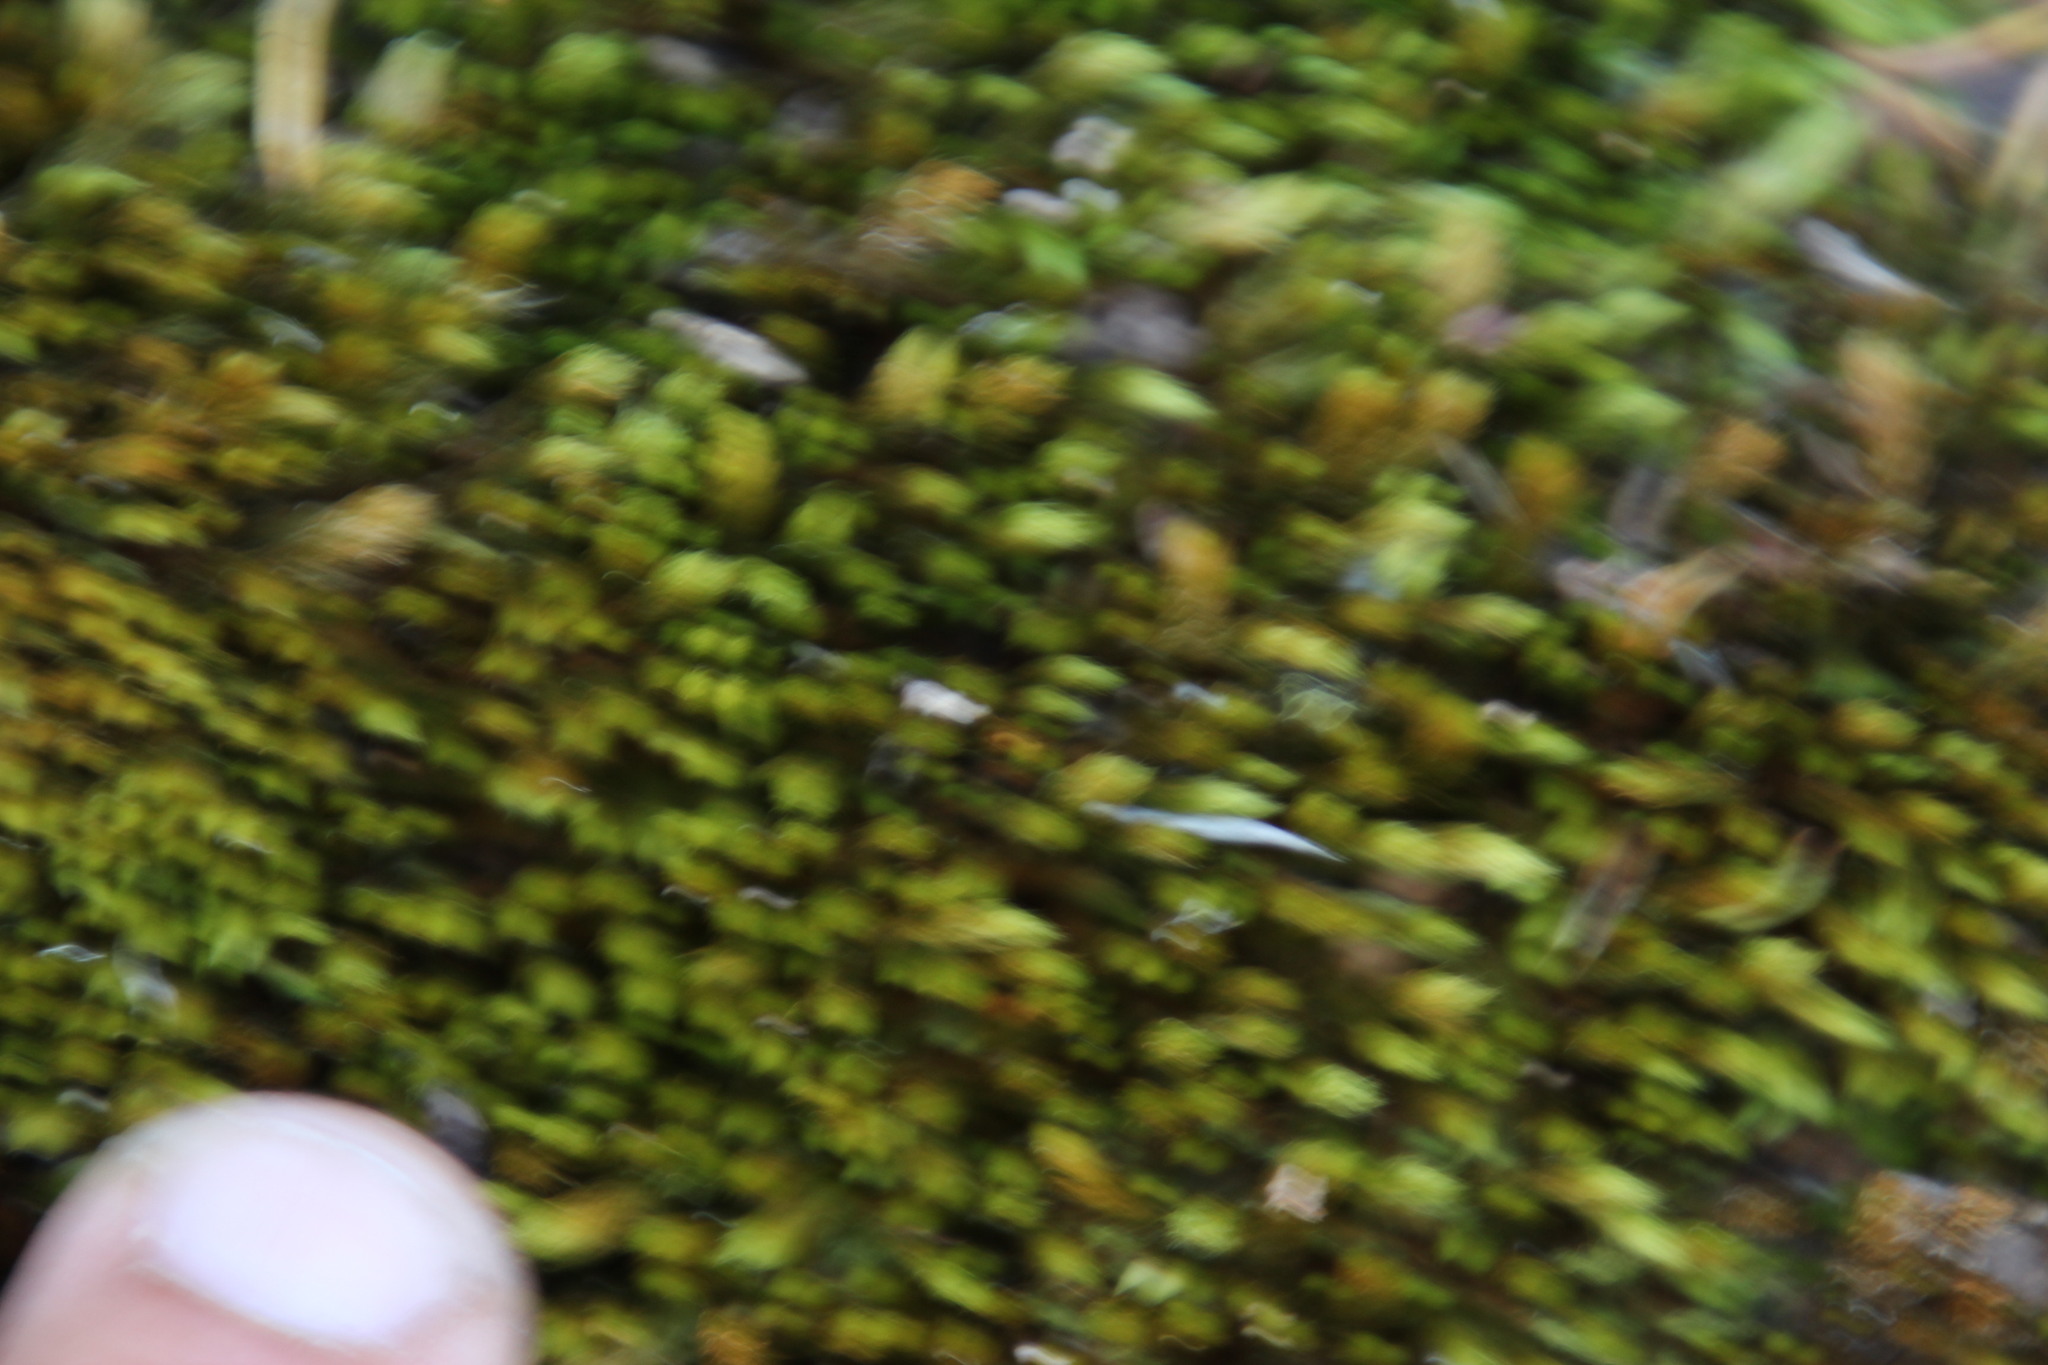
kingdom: Plantae
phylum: Bryophyta
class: Bryopsida
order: Bartramiales
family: Bartramiaceae
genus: Bartramia
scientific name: Bartramia hampeana
